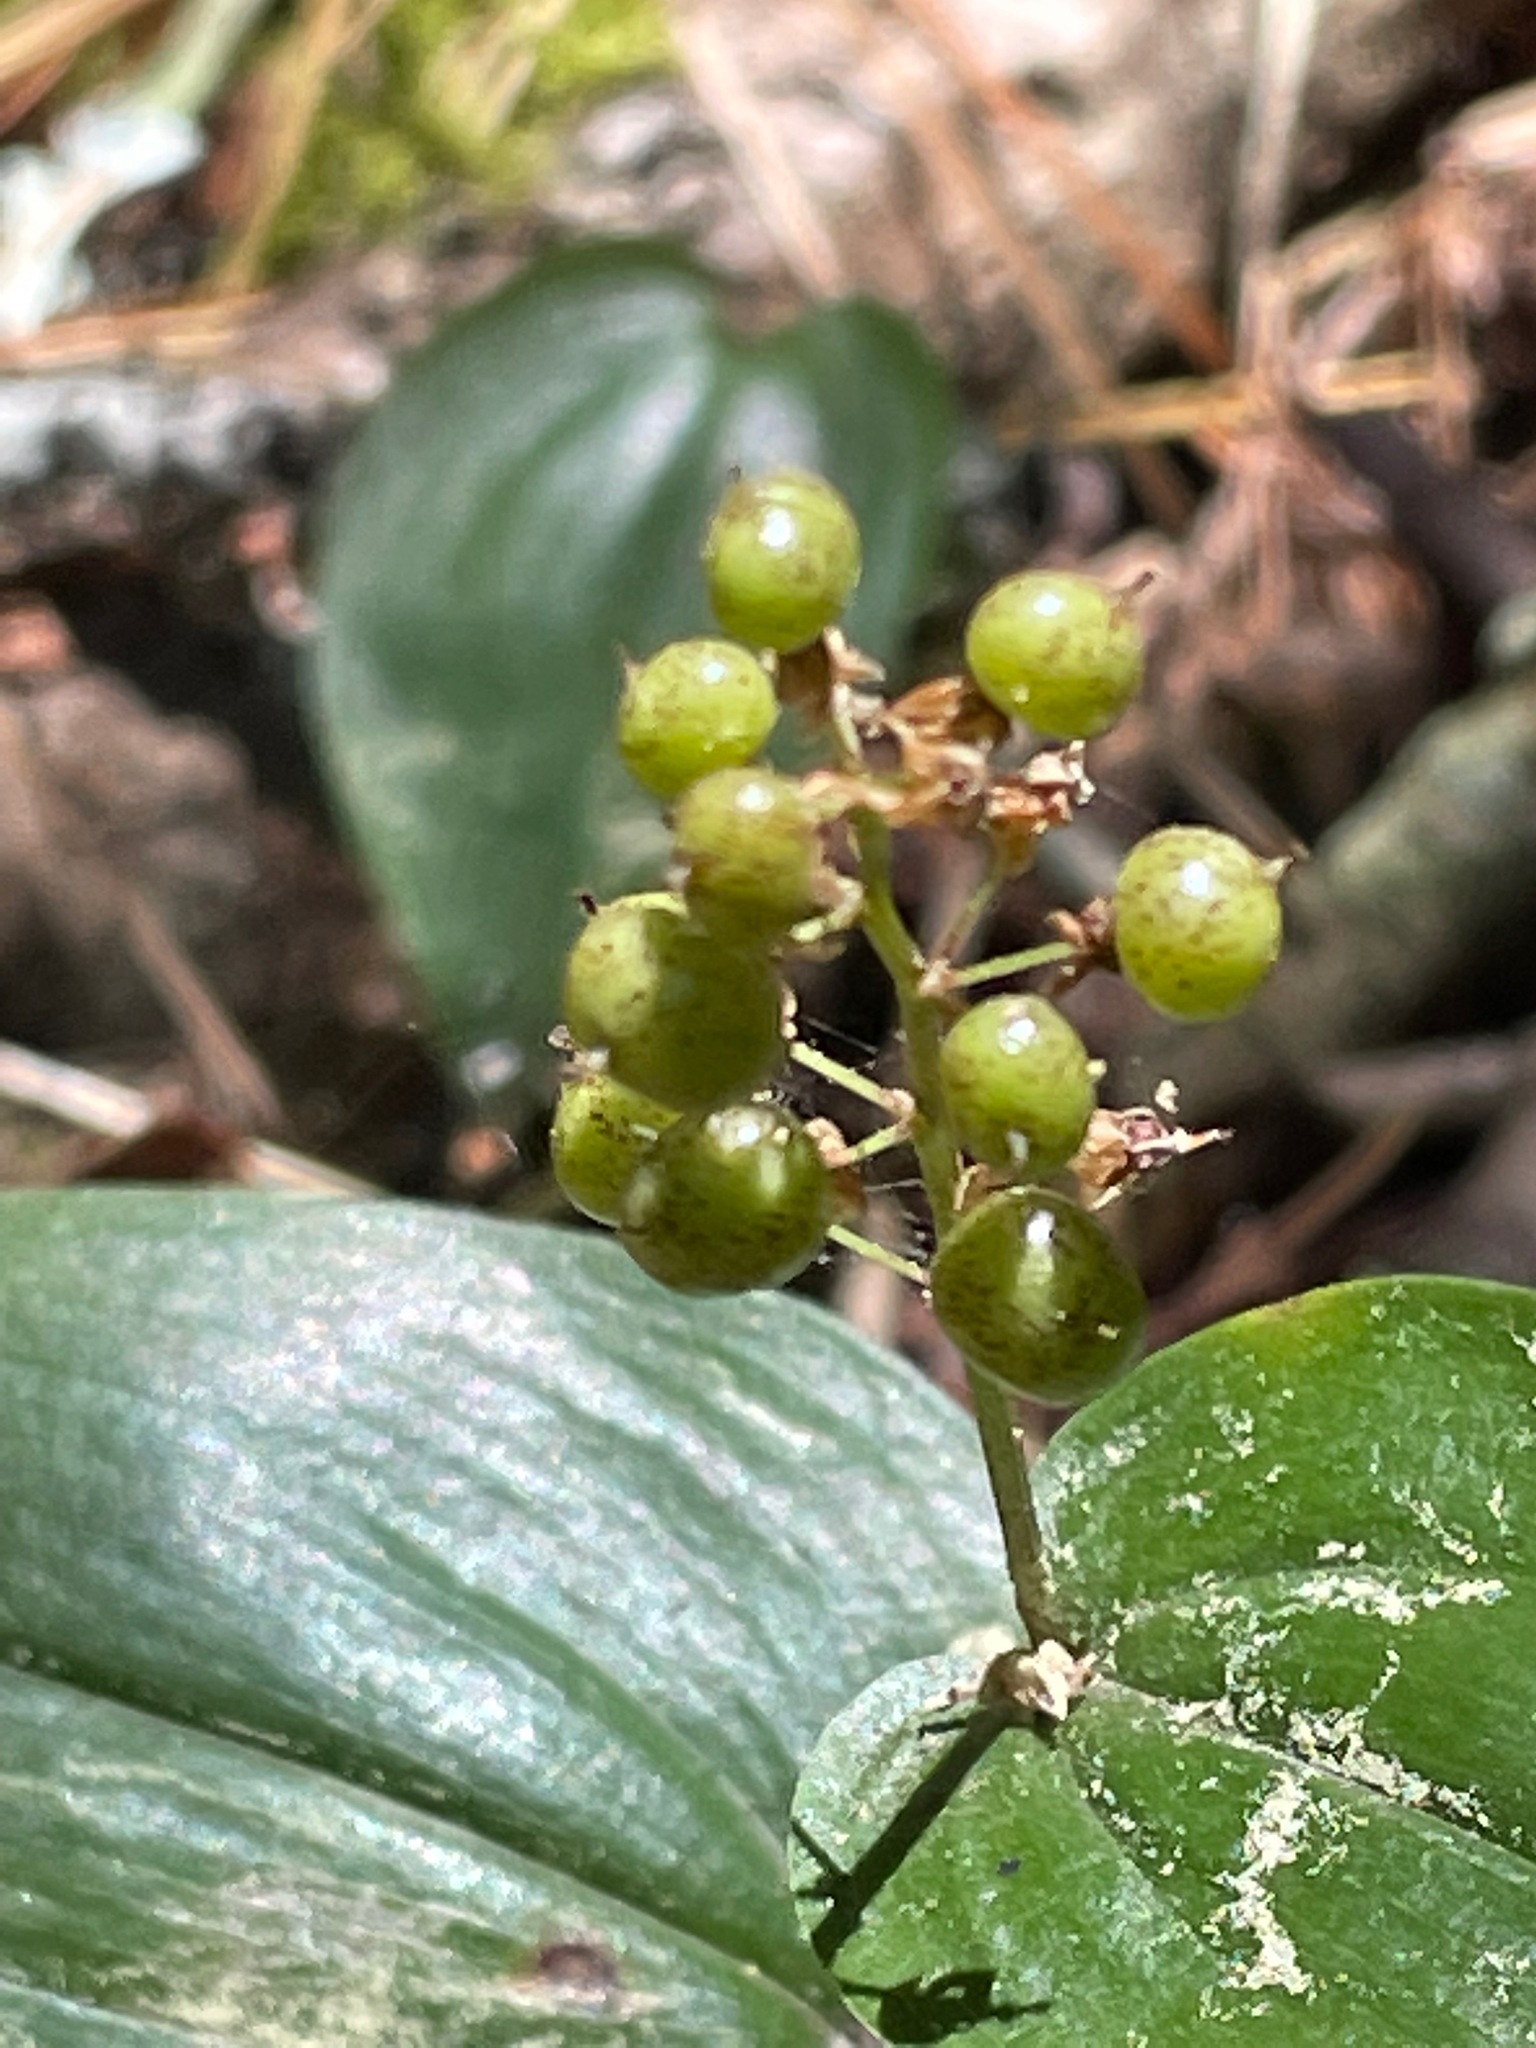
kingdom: Plantae
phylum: Tracheophyta
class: Liliopsida
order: Asparagales
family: Asparagaceae
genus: Maianthemum
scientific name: Maianthemum canadense
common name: False lily-of-the-valley
